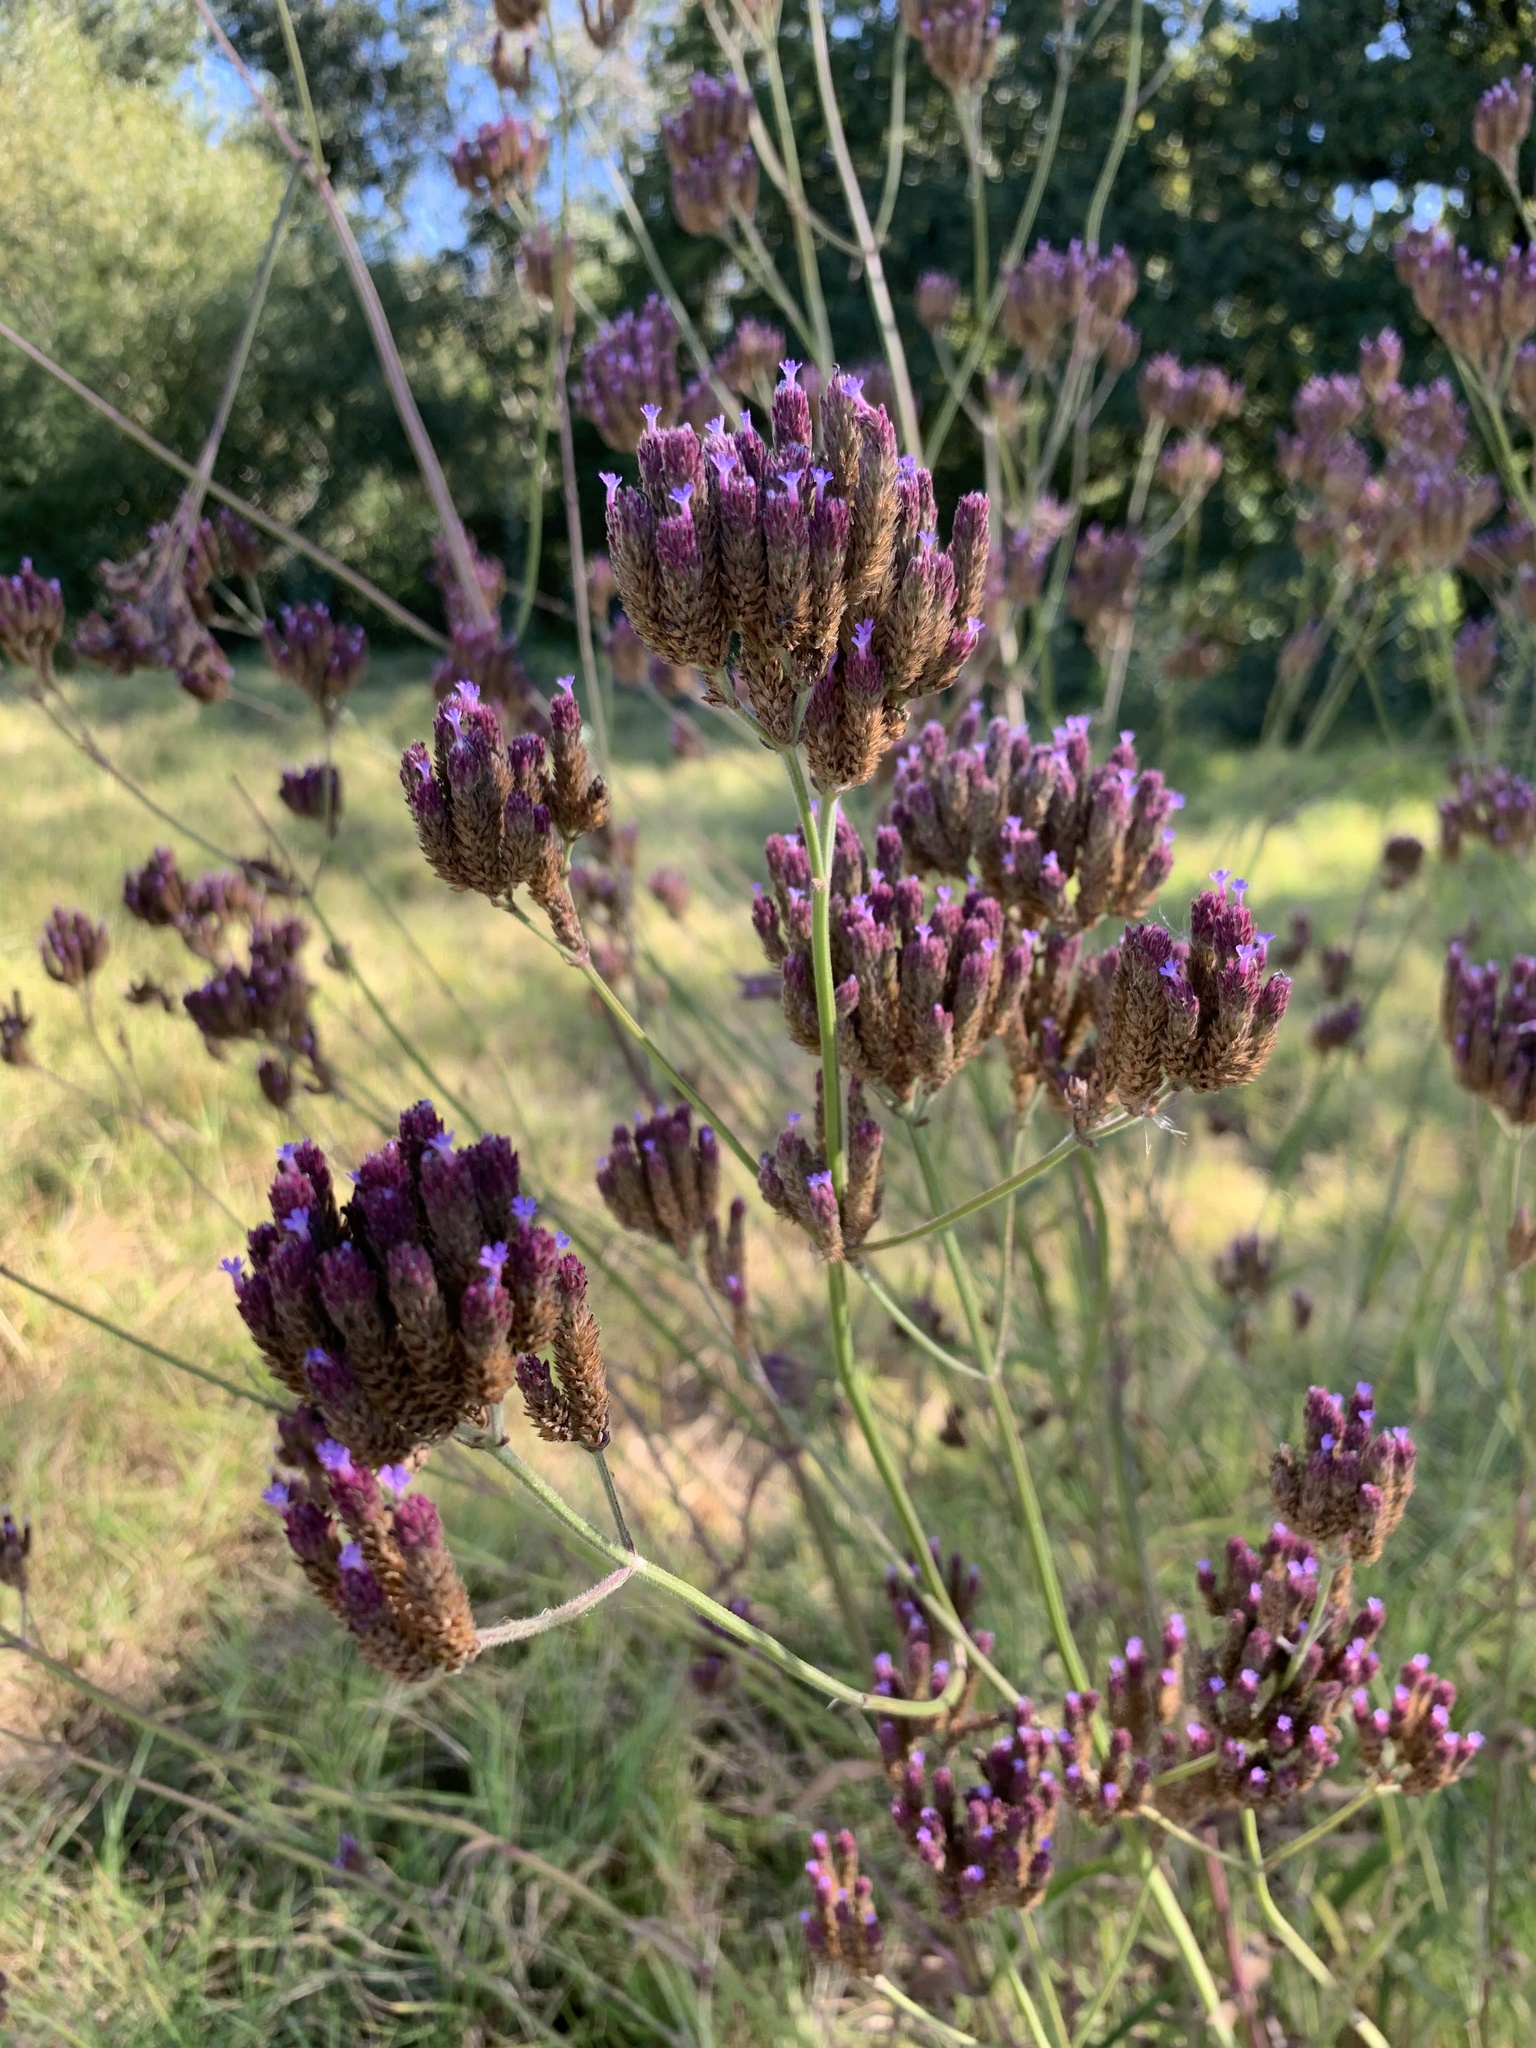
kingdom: Plantae
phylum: Tracheophyta
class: Magnoliopsida
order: Lamiales
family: Verbenaceae
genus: Verbena
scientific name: Verbena bonariensis
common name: Purpletop vervain
